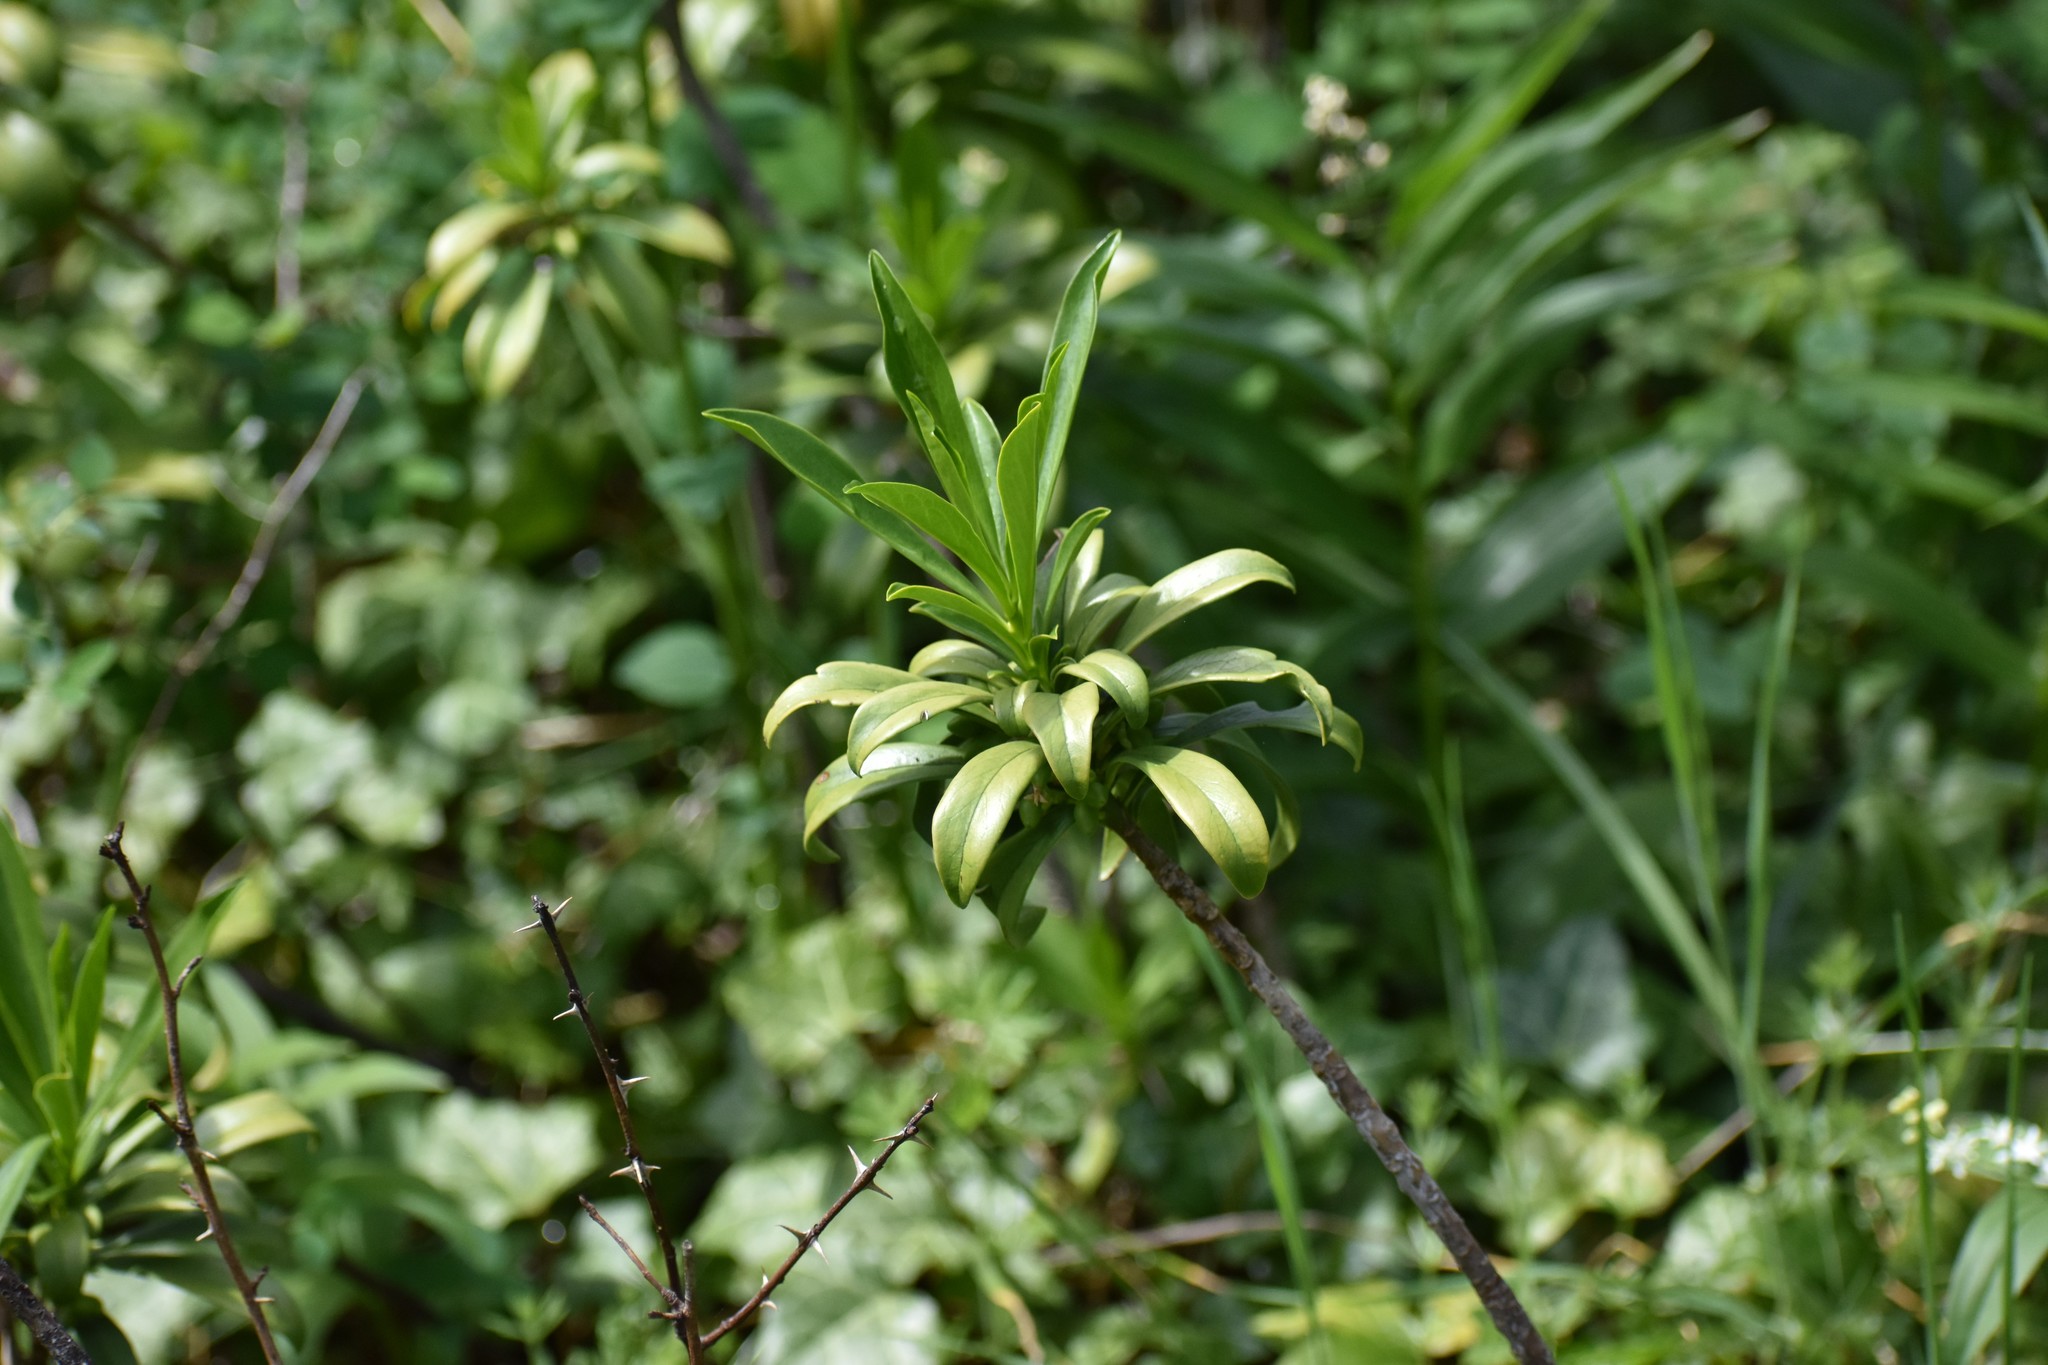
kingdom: Plantae
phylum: Tracheophyta
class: Magnoliopsida
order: Malvales
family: Thymelaeaceae
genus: Daphne
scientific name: Daphne laureola
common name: Spurge-laurel
